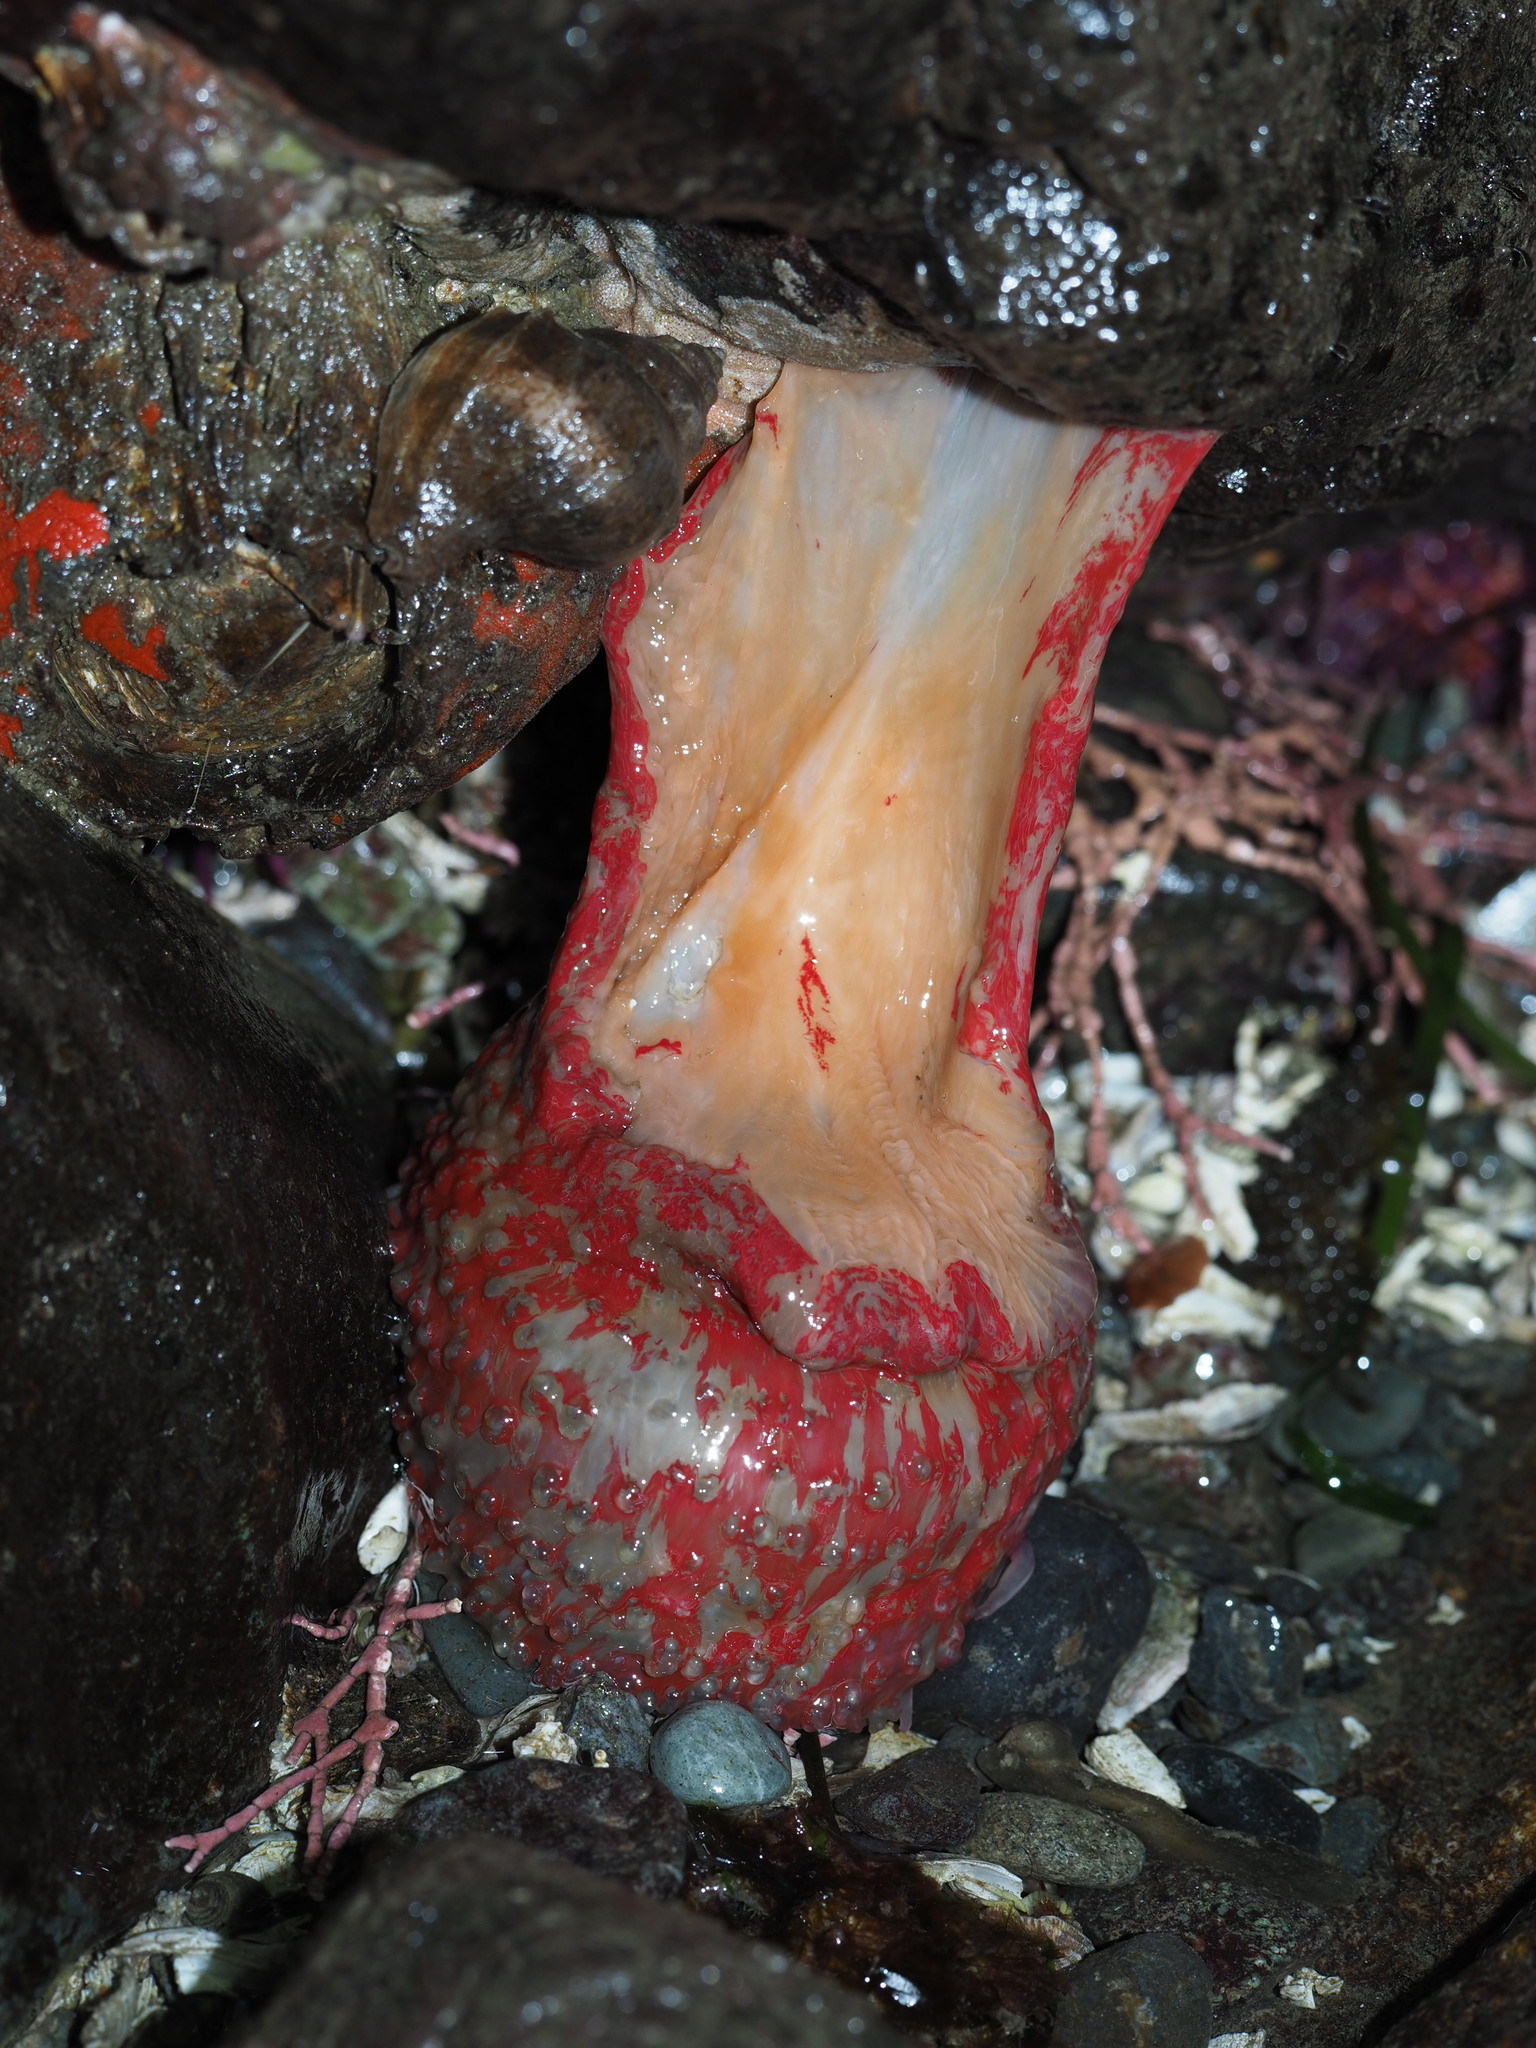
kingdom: Animalia
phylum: Cnidaria
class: Anthozoa
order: Actiniaria
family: Actiniidae
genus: Urticina
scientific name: Urticina grebelnyi
